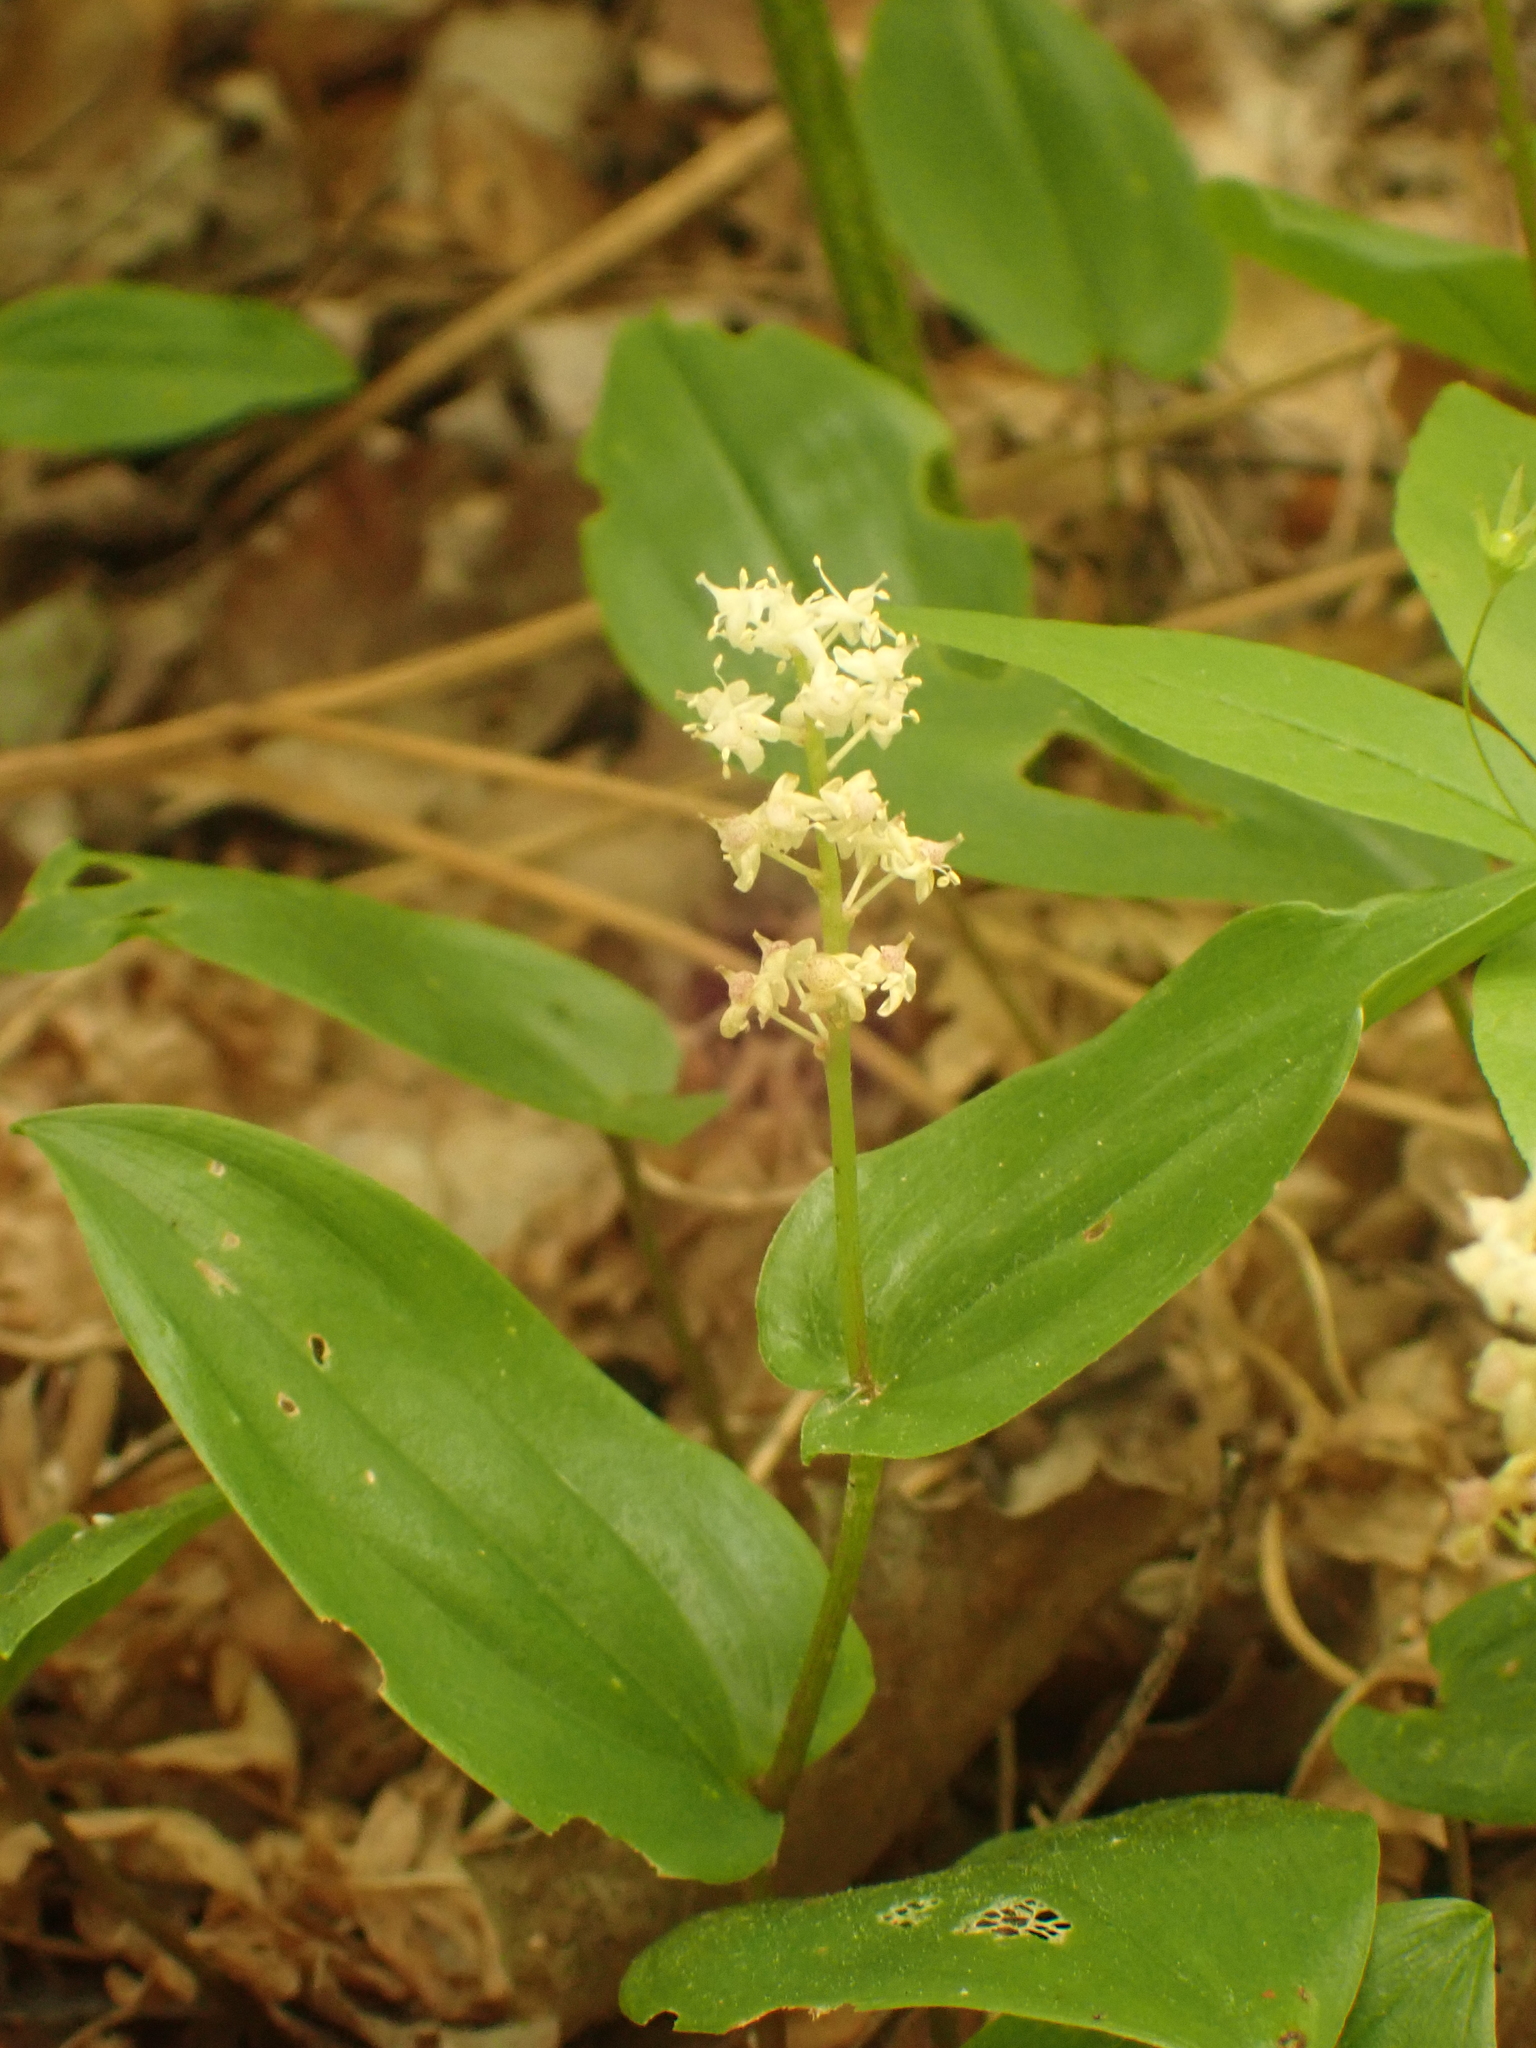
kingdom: Plantae
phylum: Tracheophyta
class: Liliopsida
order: Asparagales
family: Asparagaceae
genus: Maianthemum
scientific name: Maianthemum canadense
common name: False lily-of-the-valley
